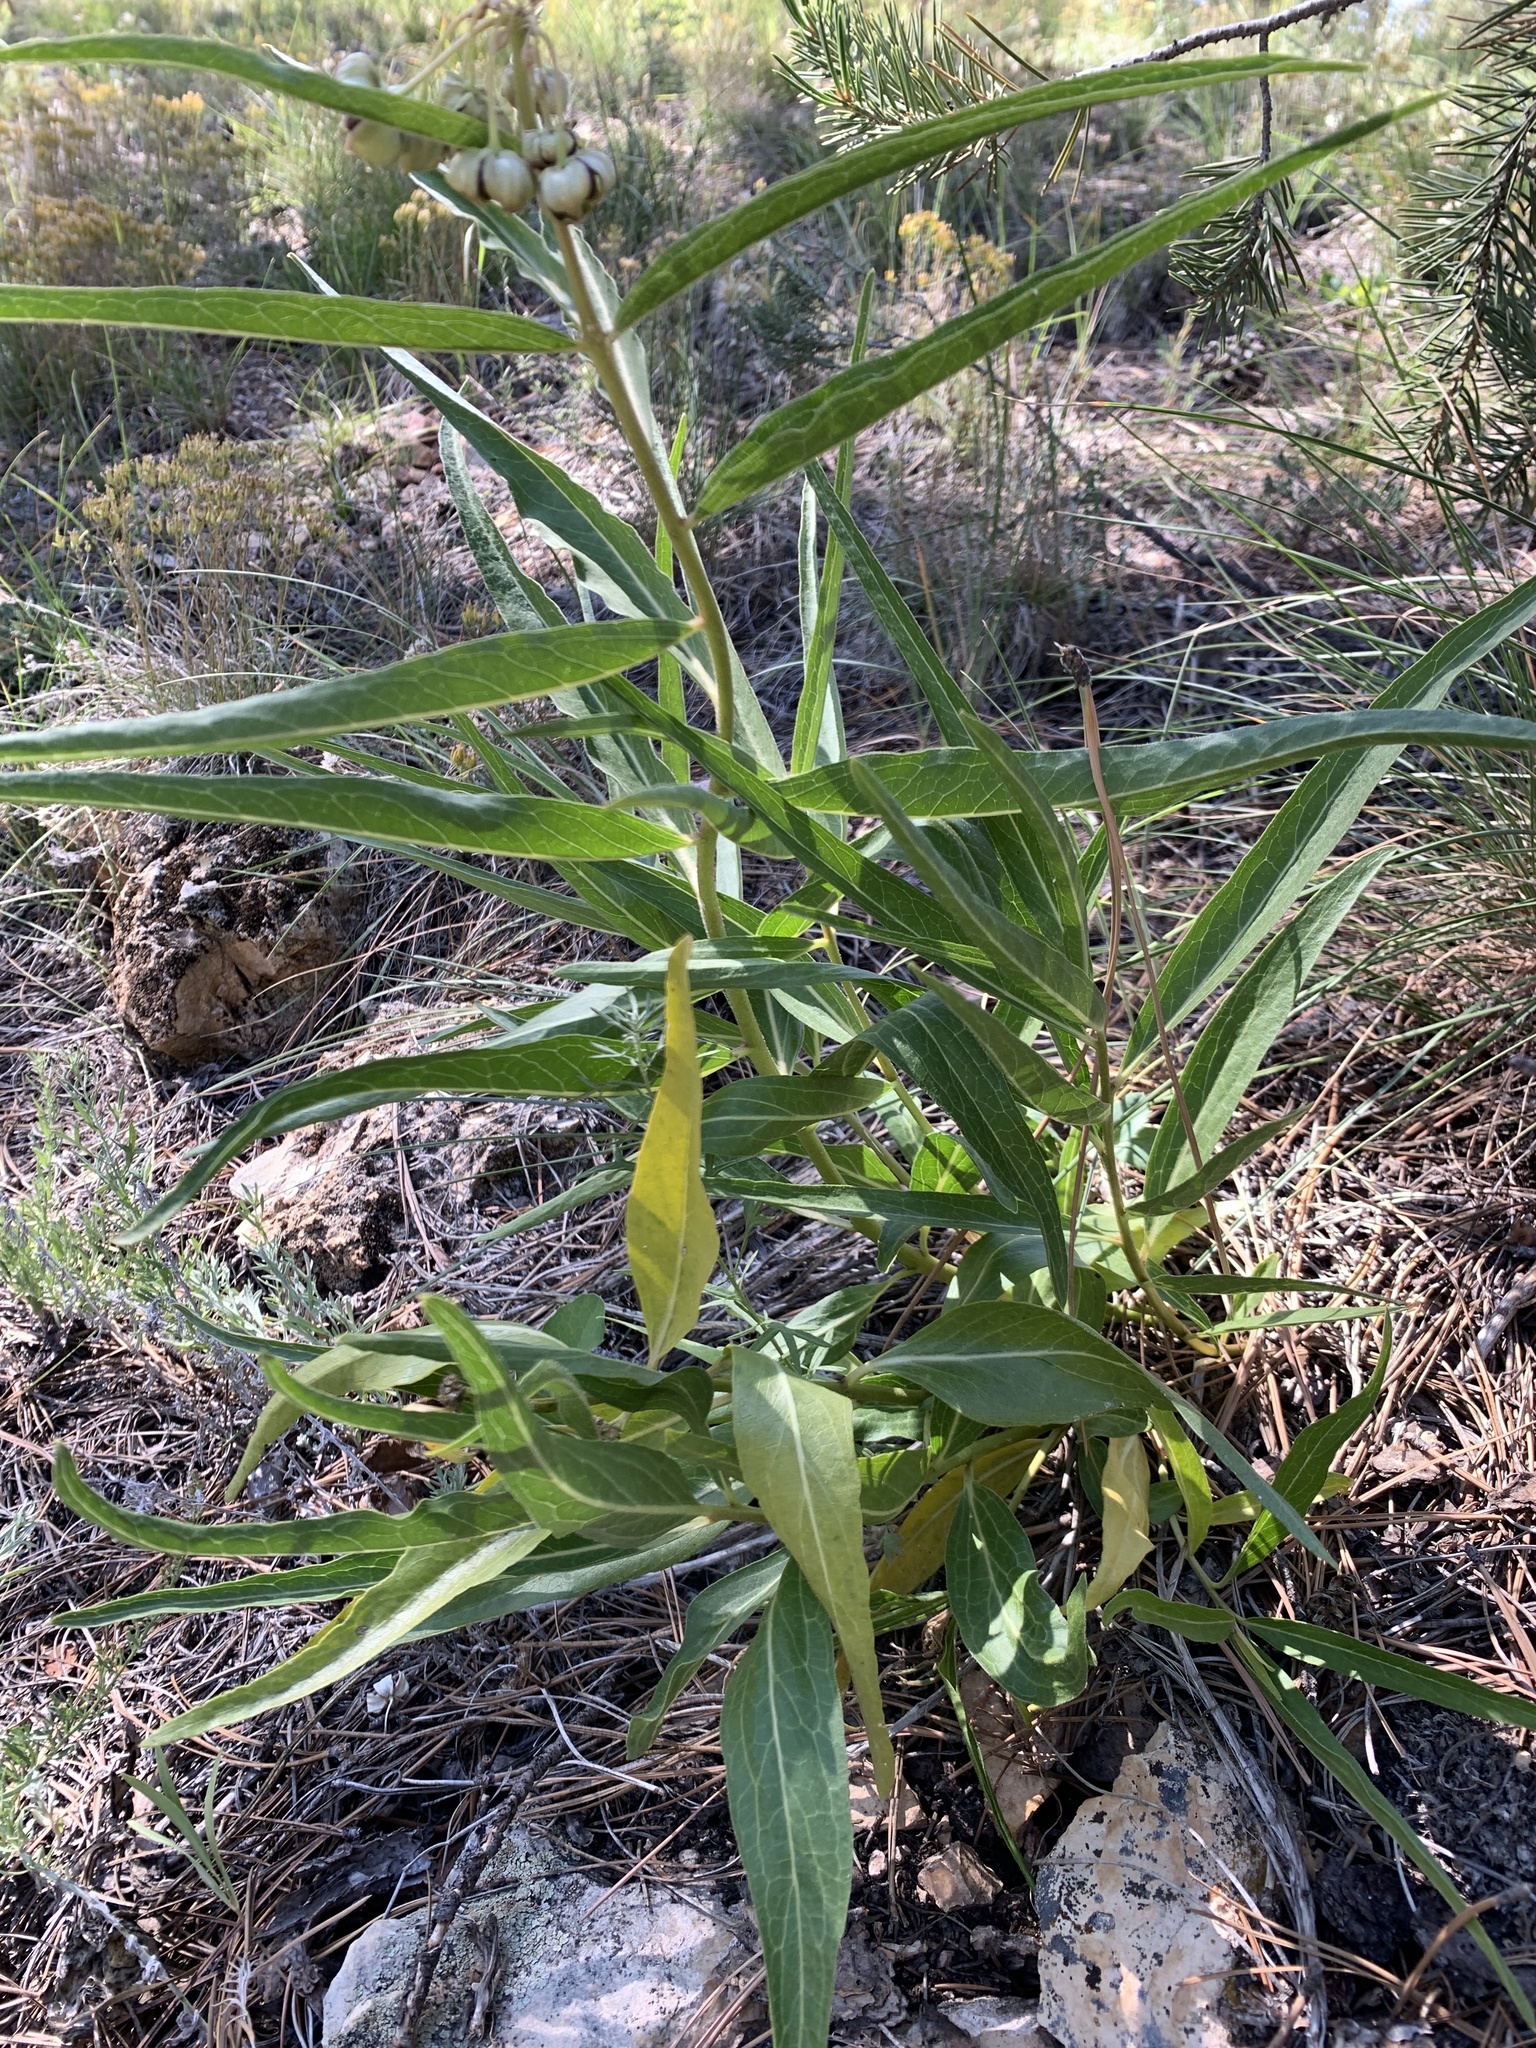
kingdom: Plantae
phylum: Tracheophyta
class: Magnoliopsida
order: Gentianales
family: Apocynaceae
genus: Asclepias
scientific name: Asclepias asperula
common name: Antelope horns
